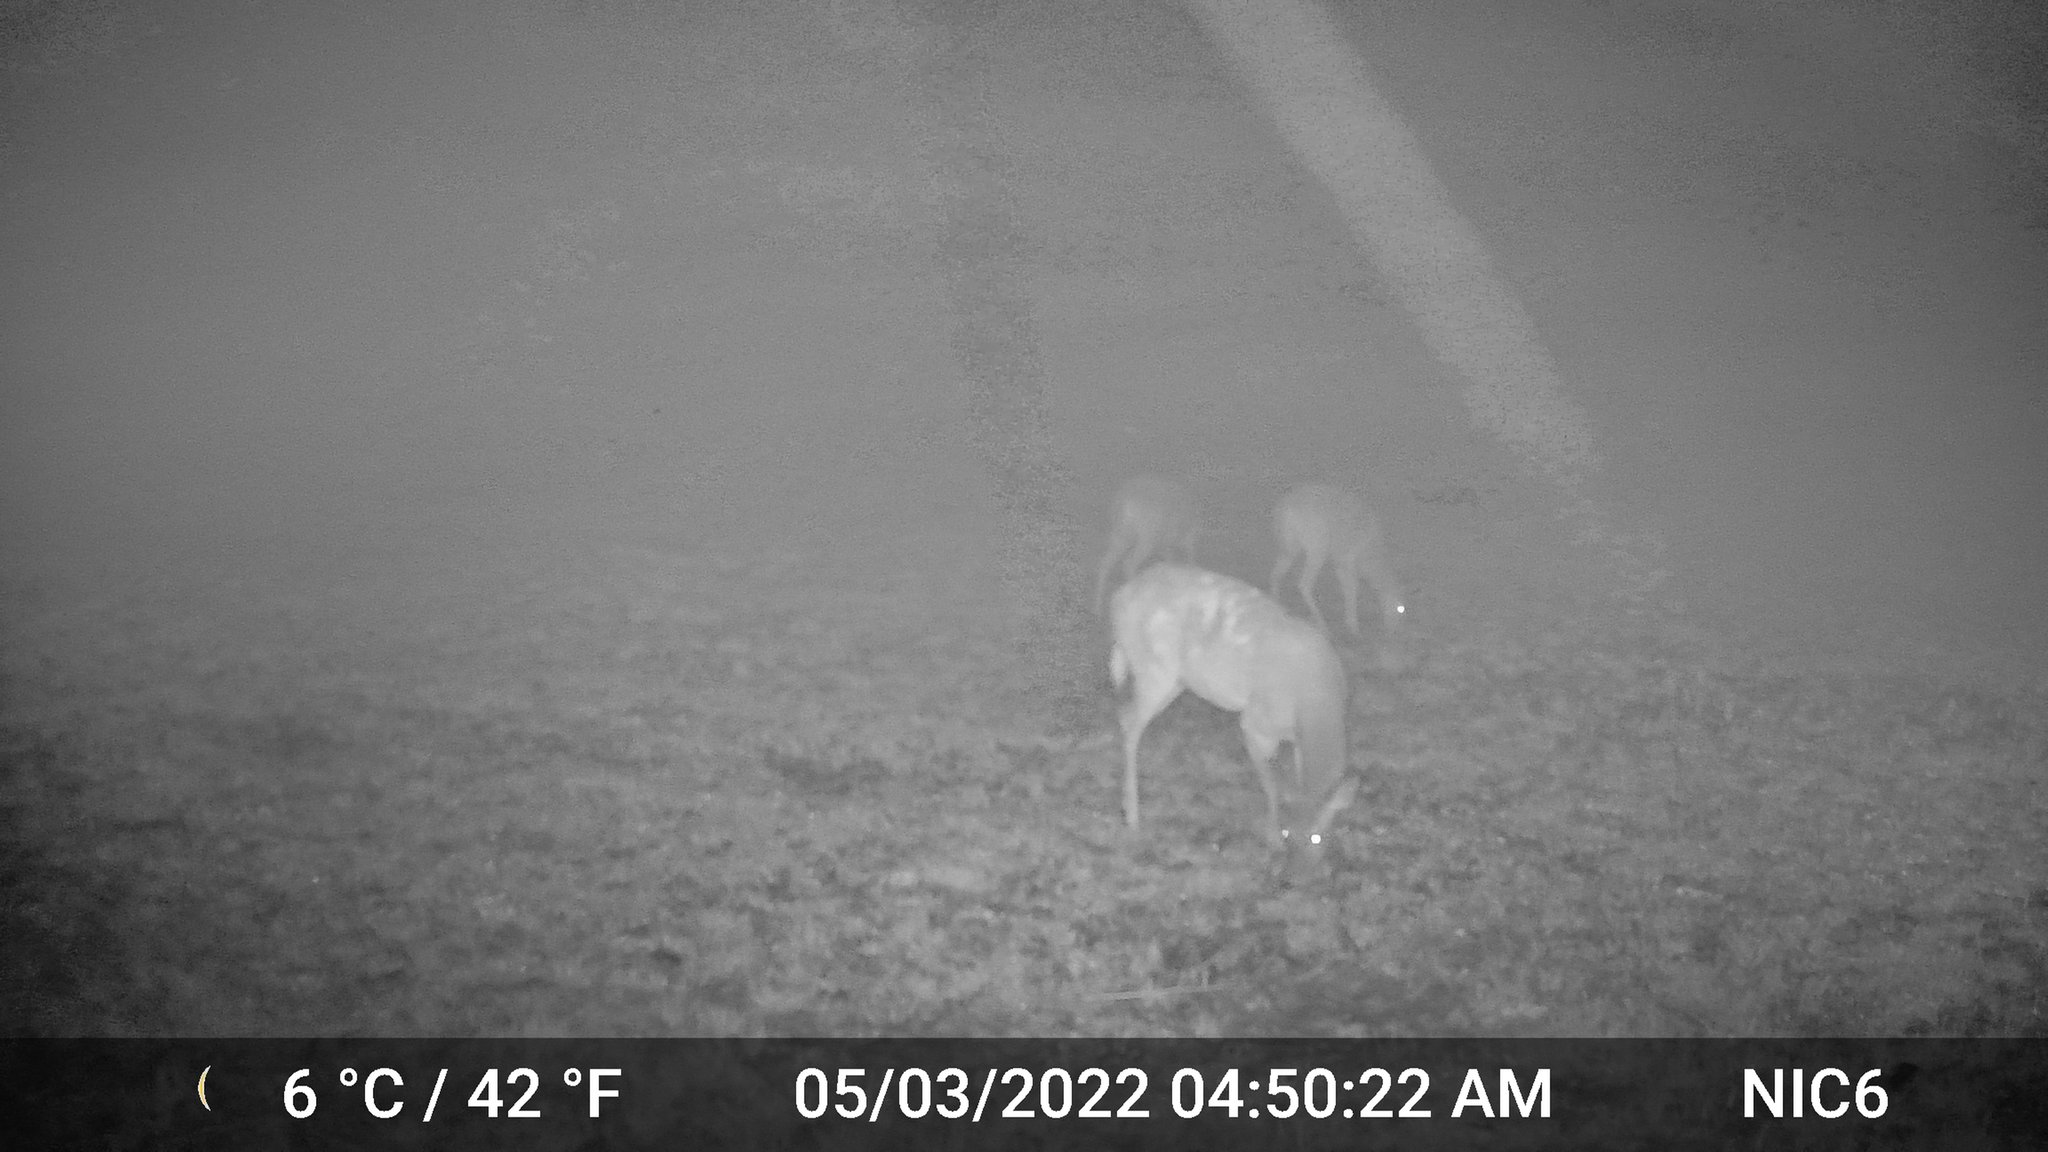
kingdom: Animalia
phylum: Chordata
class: Mammalia
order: Artiodactyla
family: Cervidae
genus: Odocoileus
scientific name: Odocoileus virginianus
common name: White-tailed deer
